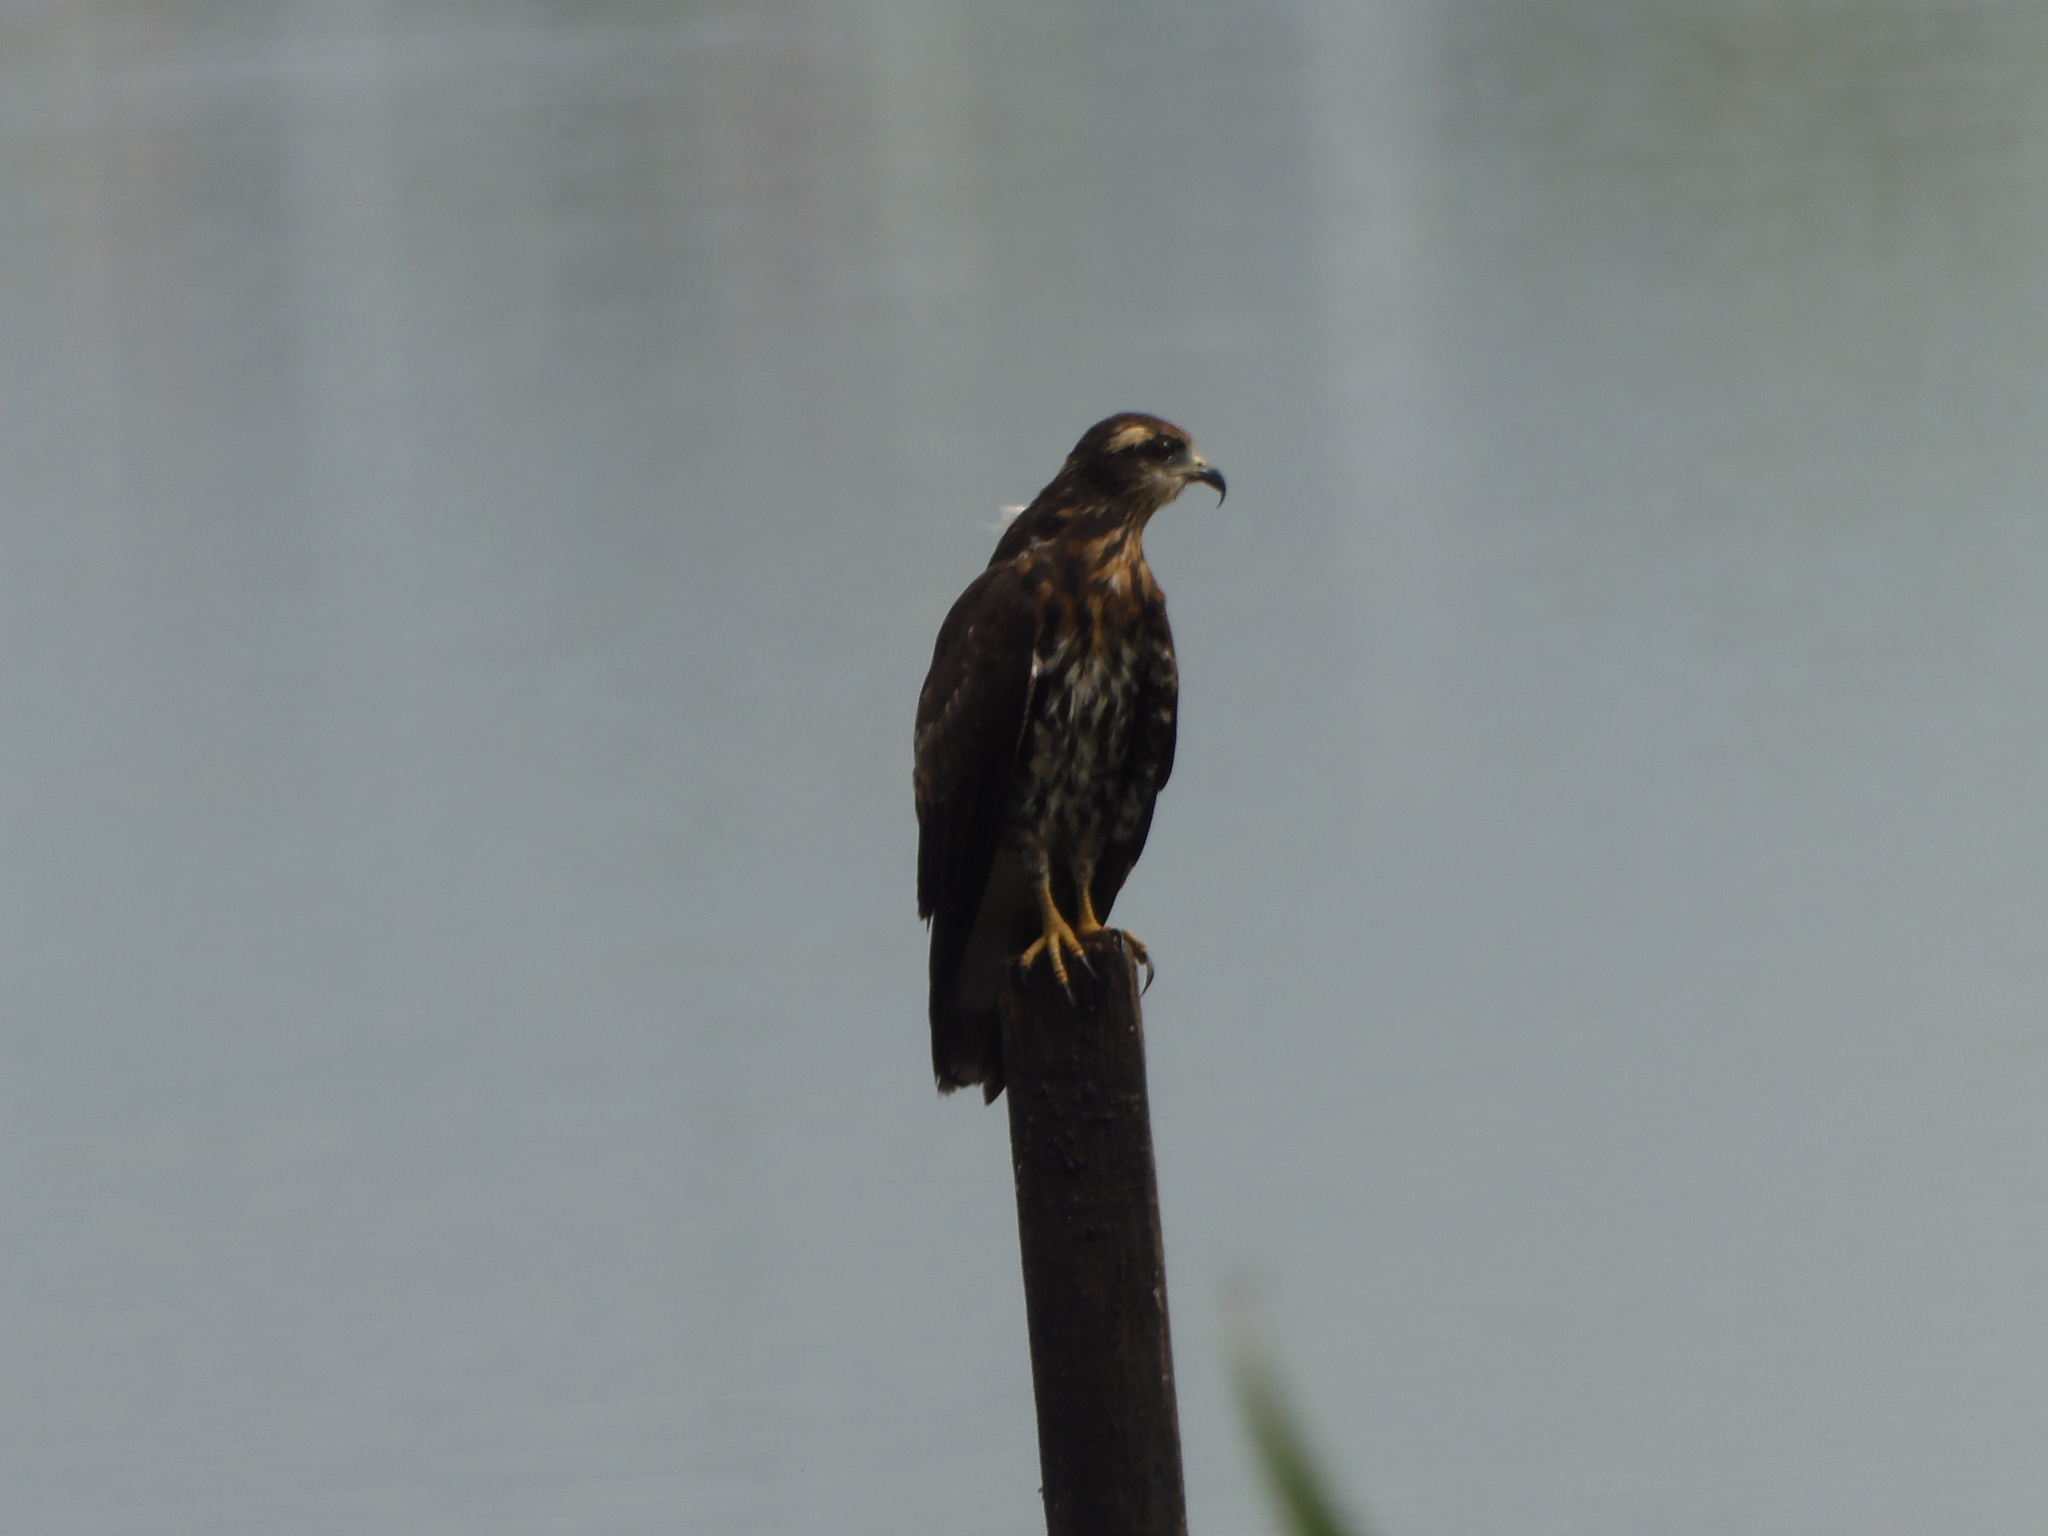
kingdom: Animalia
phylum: Chordata
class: Aves
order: Accipitriformes
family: Accipitridae
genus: Rostrhamus
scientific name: Rostrhamus sociabilis
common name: Snail kite
